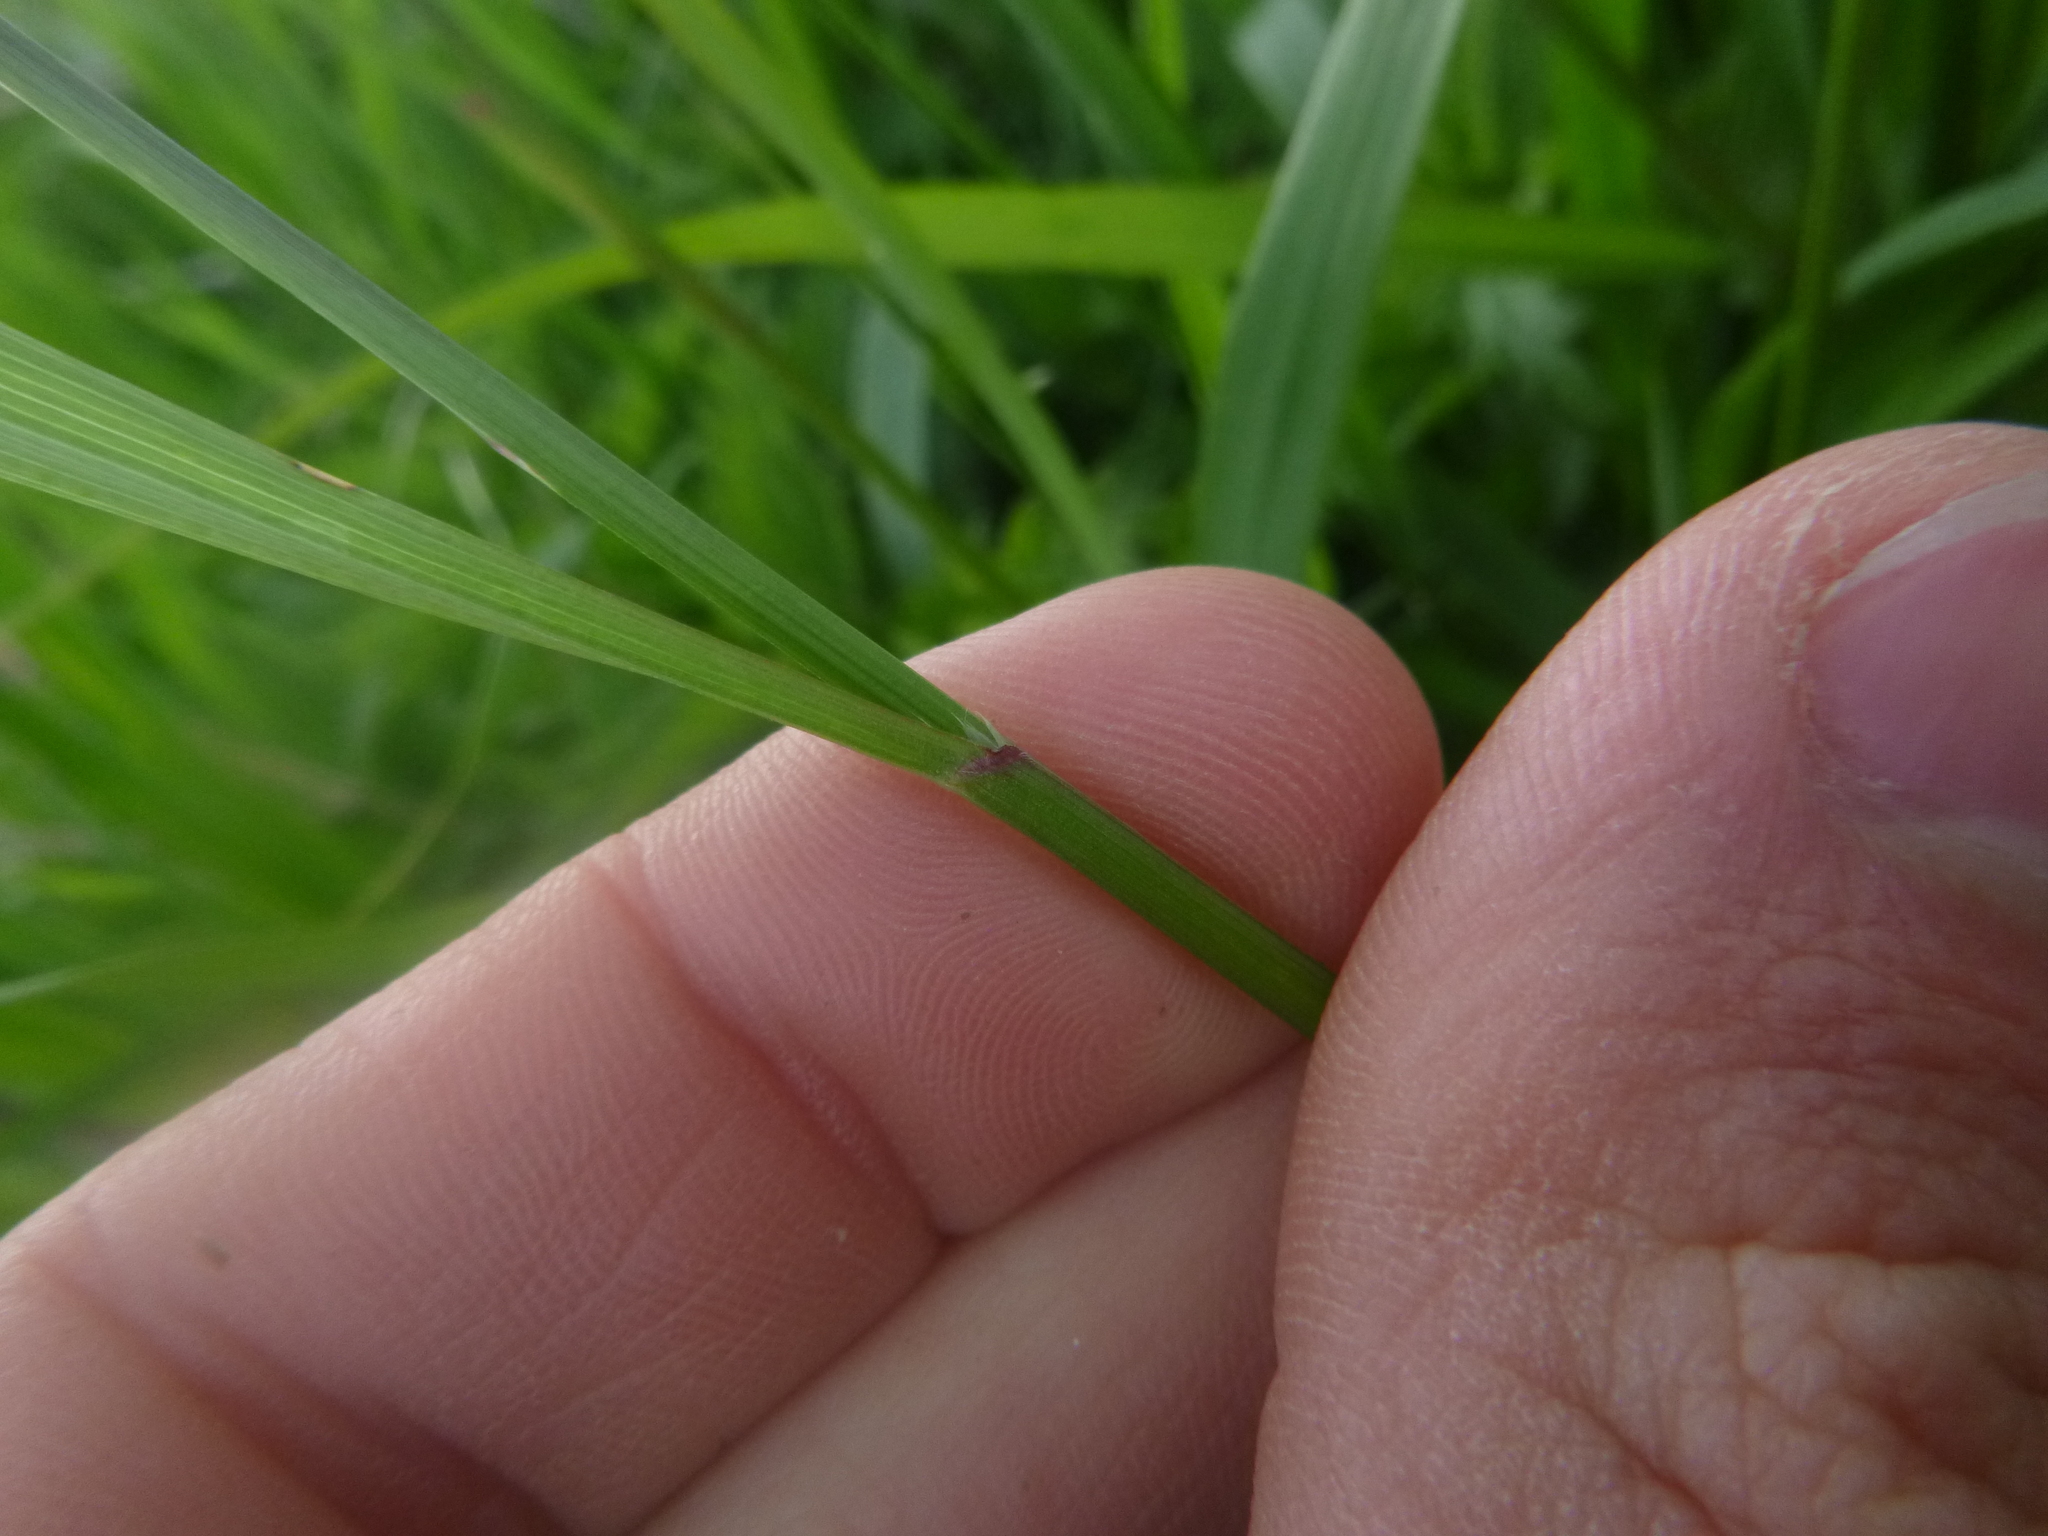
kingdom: Plantae
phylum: Tracheophyta
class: Liliopsida
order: Poales
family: Poaceae
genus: Bromus
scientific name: Bromus sterilis
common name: Poverty brome
